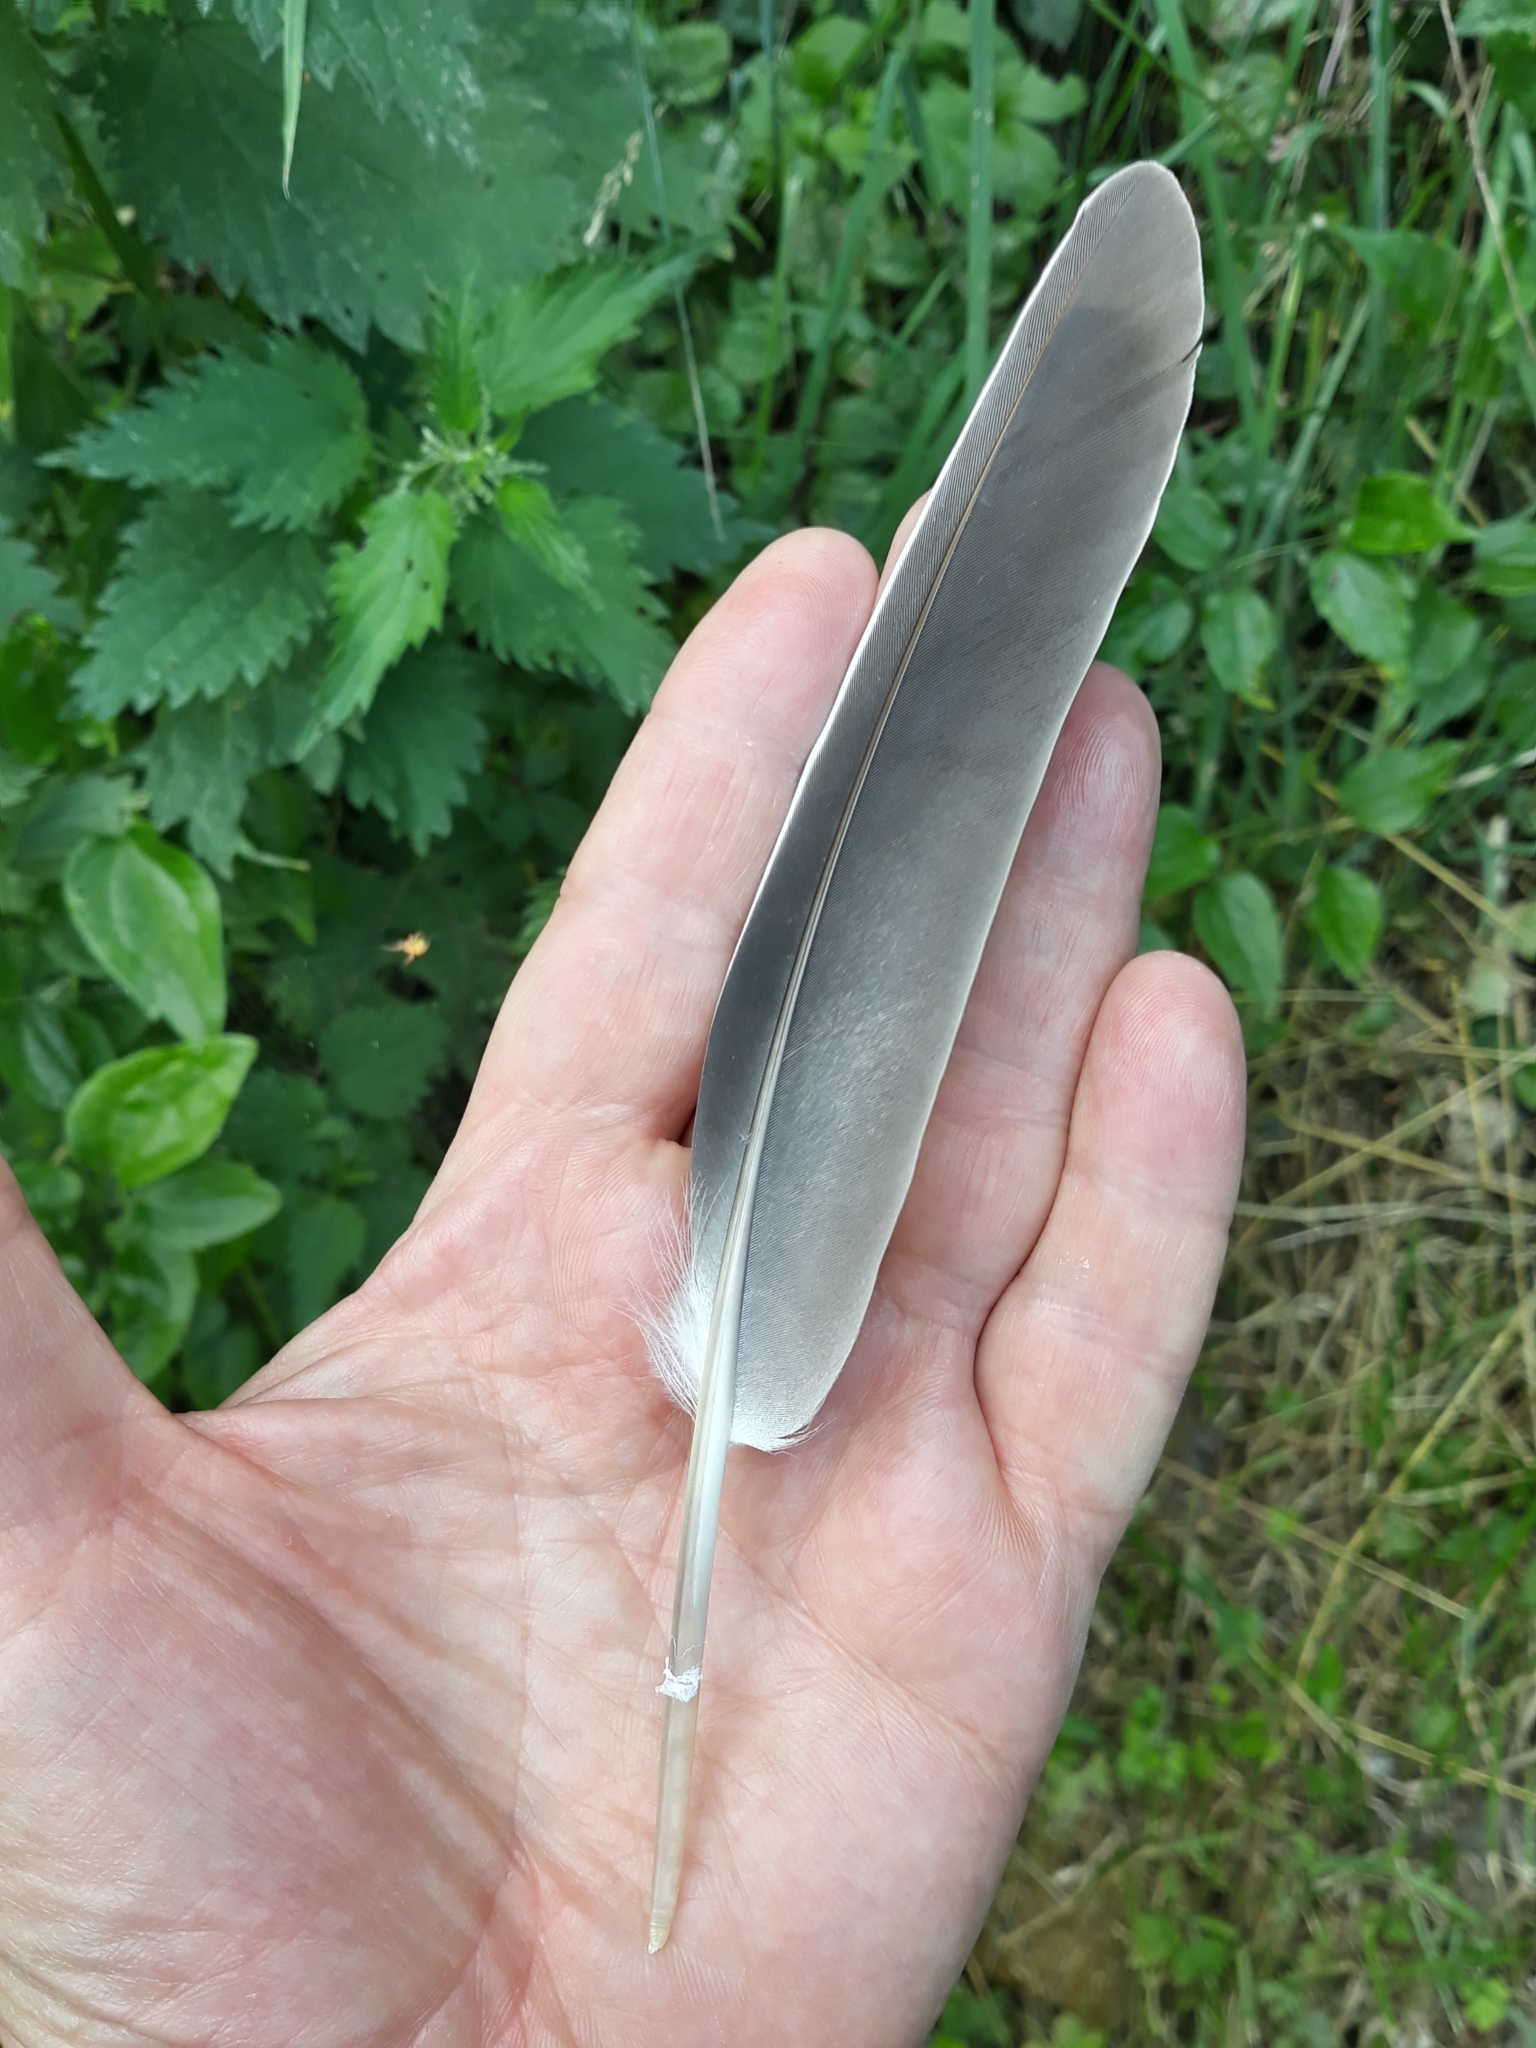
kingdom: Animalia
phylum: Chordata
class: Aves
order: Columbiformes
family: Columbidae
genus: Columba
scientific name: Columba palumbus
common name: Common wood pigeon
